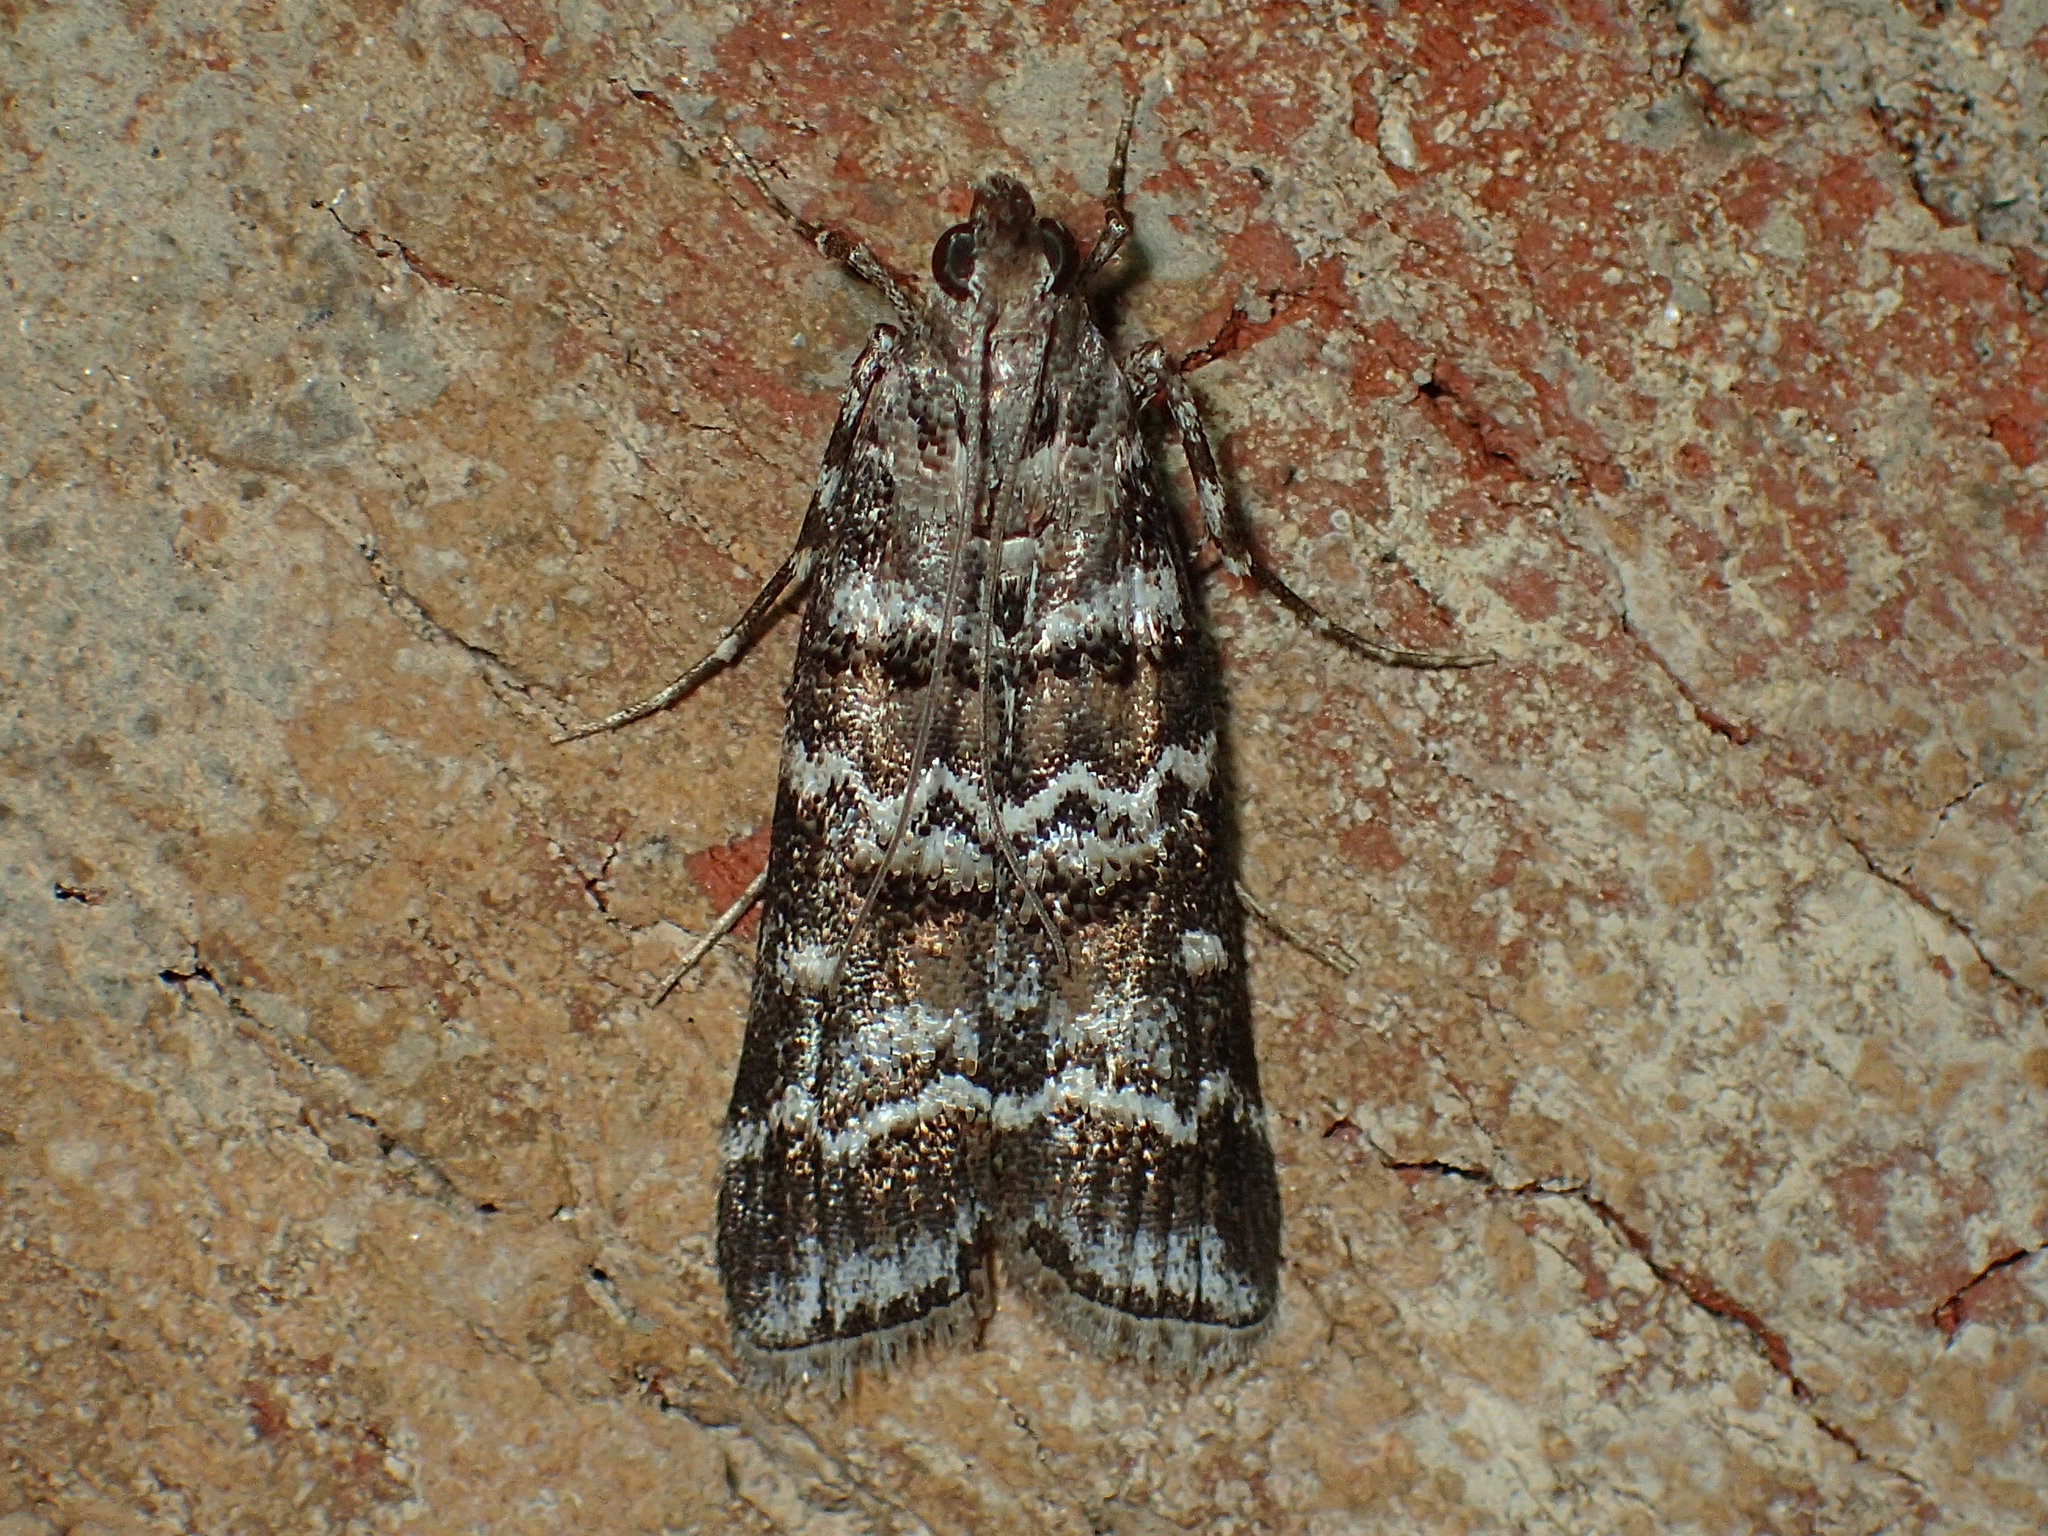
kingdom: Animalia
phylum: Arthropoda
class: Insecta
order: Lepidoptera
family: Pyralidae
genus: Dioryctria
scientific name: Dioryctria amatella
